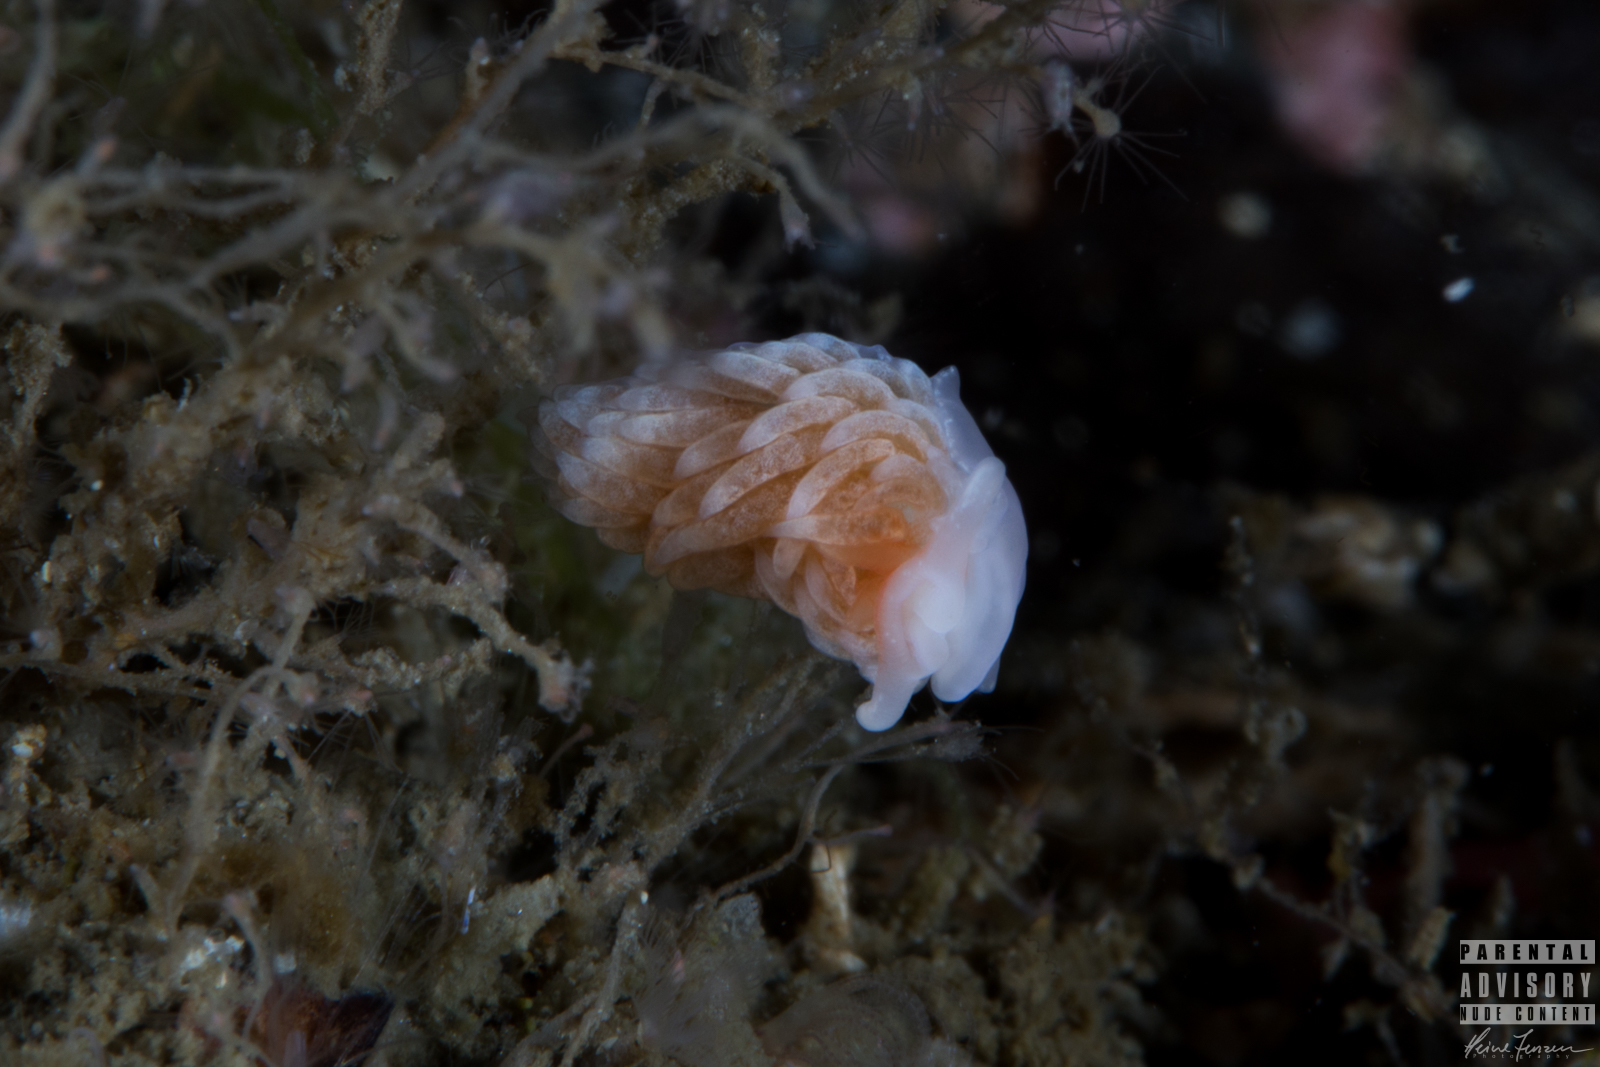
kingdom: Animalia
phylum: Mollusca
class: Gastropoda
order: Nudibranchia
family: Aeolidiidae
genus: Aeolidiella
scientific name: Aeolidiella glauca
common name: Orange-brown aeolid
